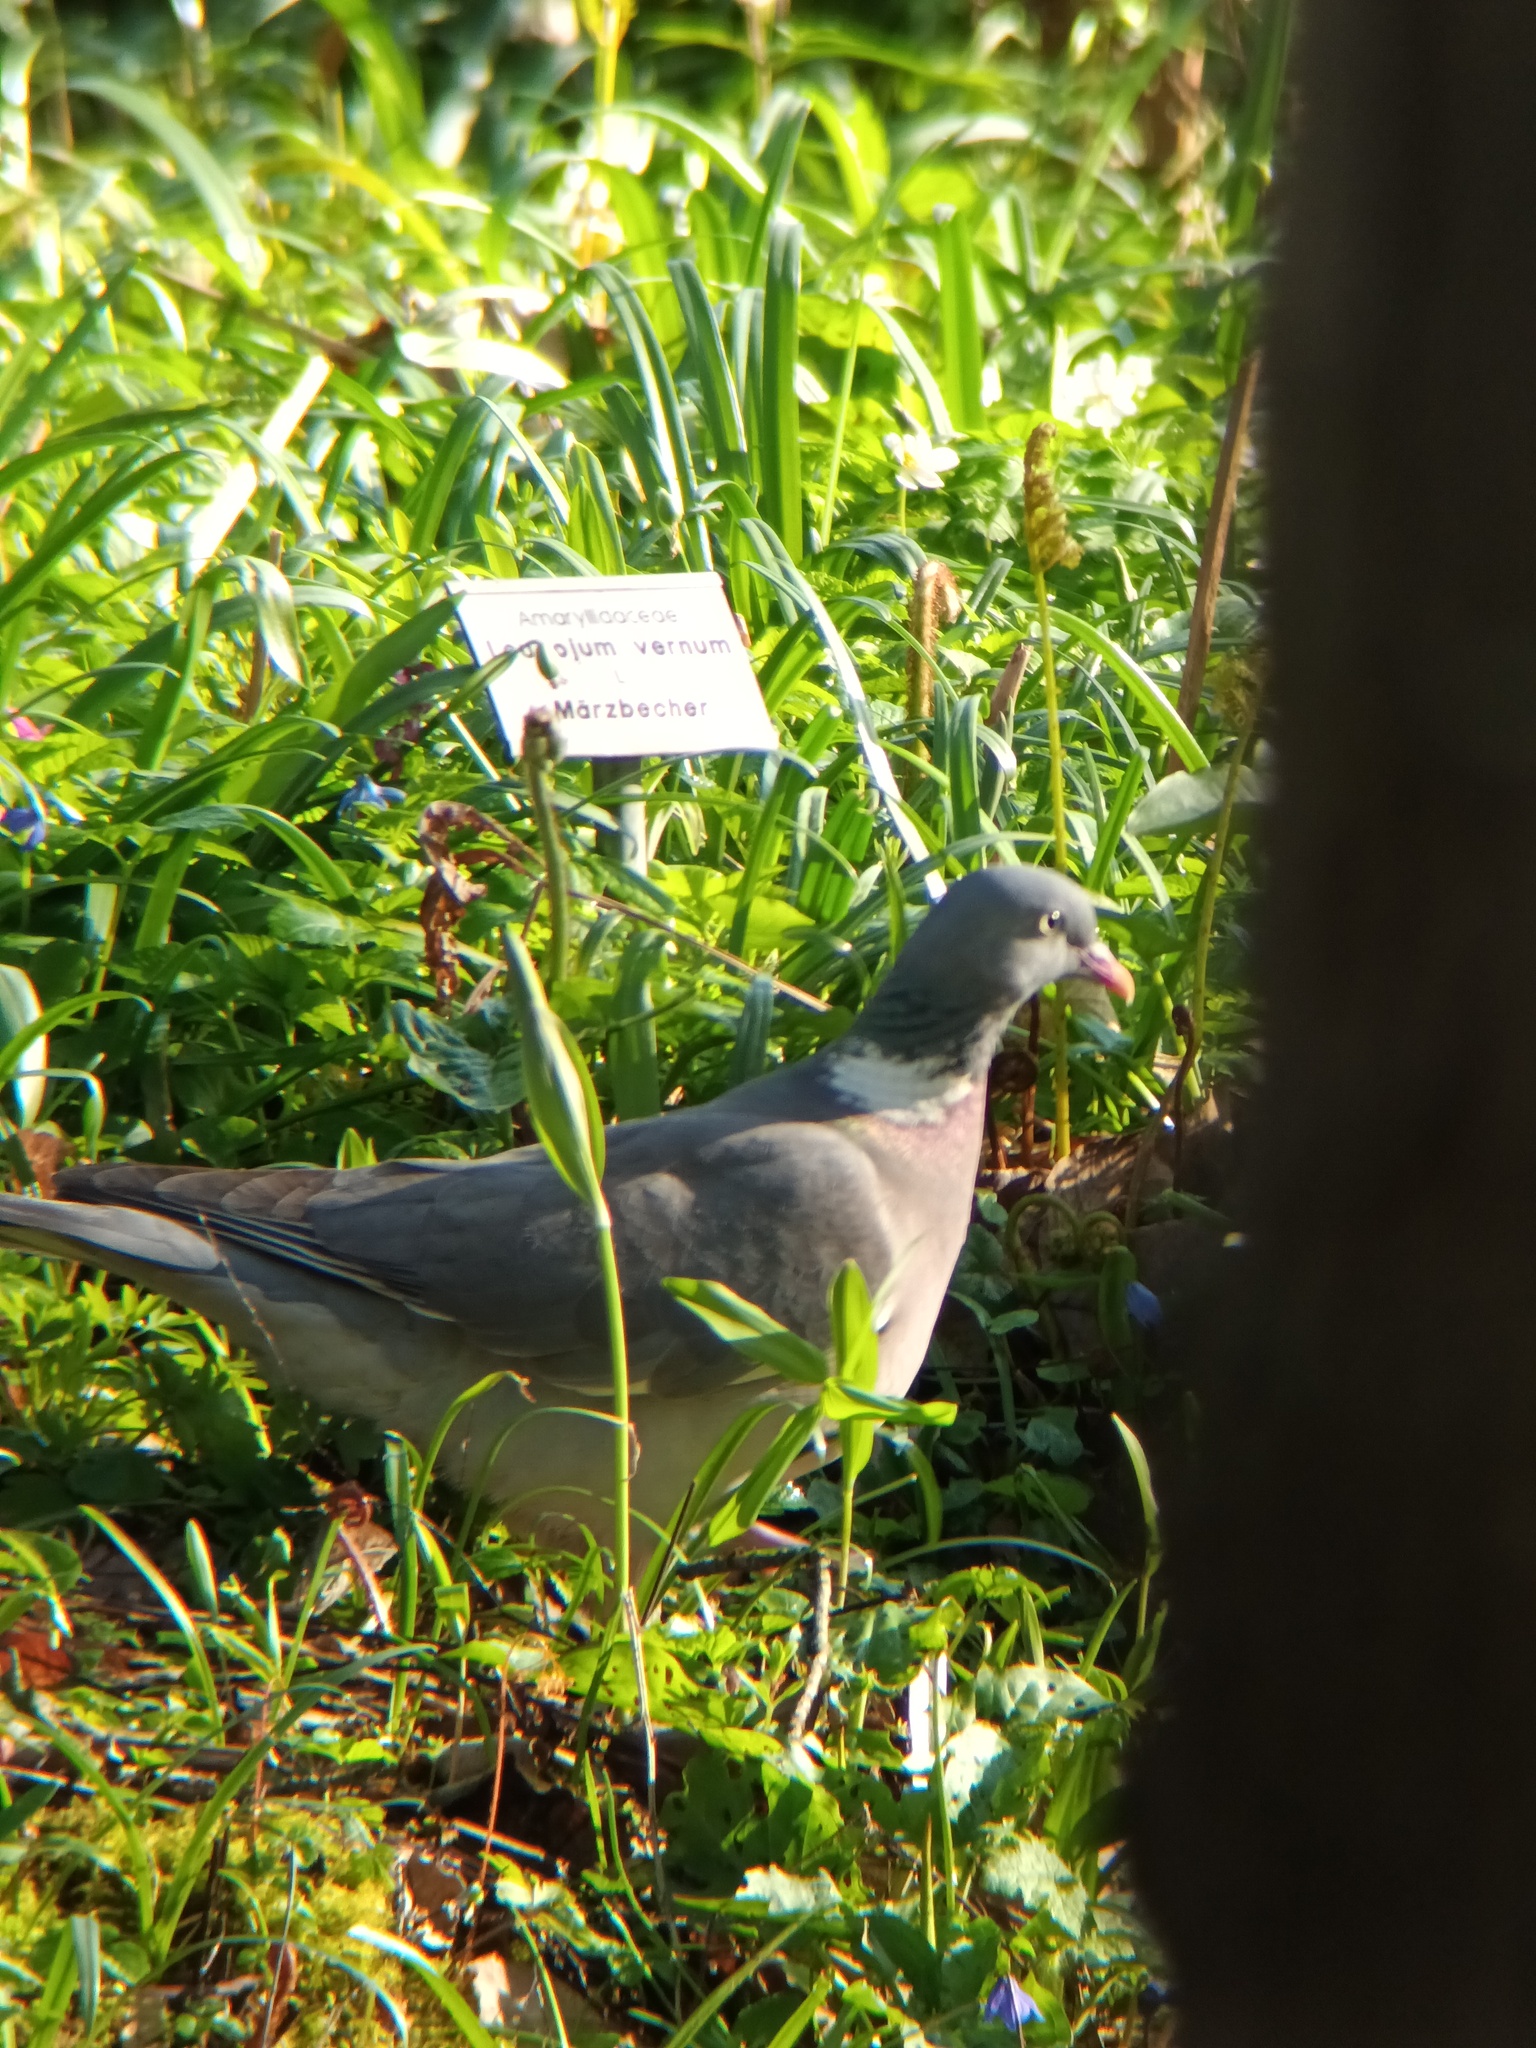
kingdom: Animalia
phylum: Chordata
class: Aves
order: Columbiformes
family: Columbidae
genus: Columba
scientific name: Columba palumbus
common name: Common wood pigeon
